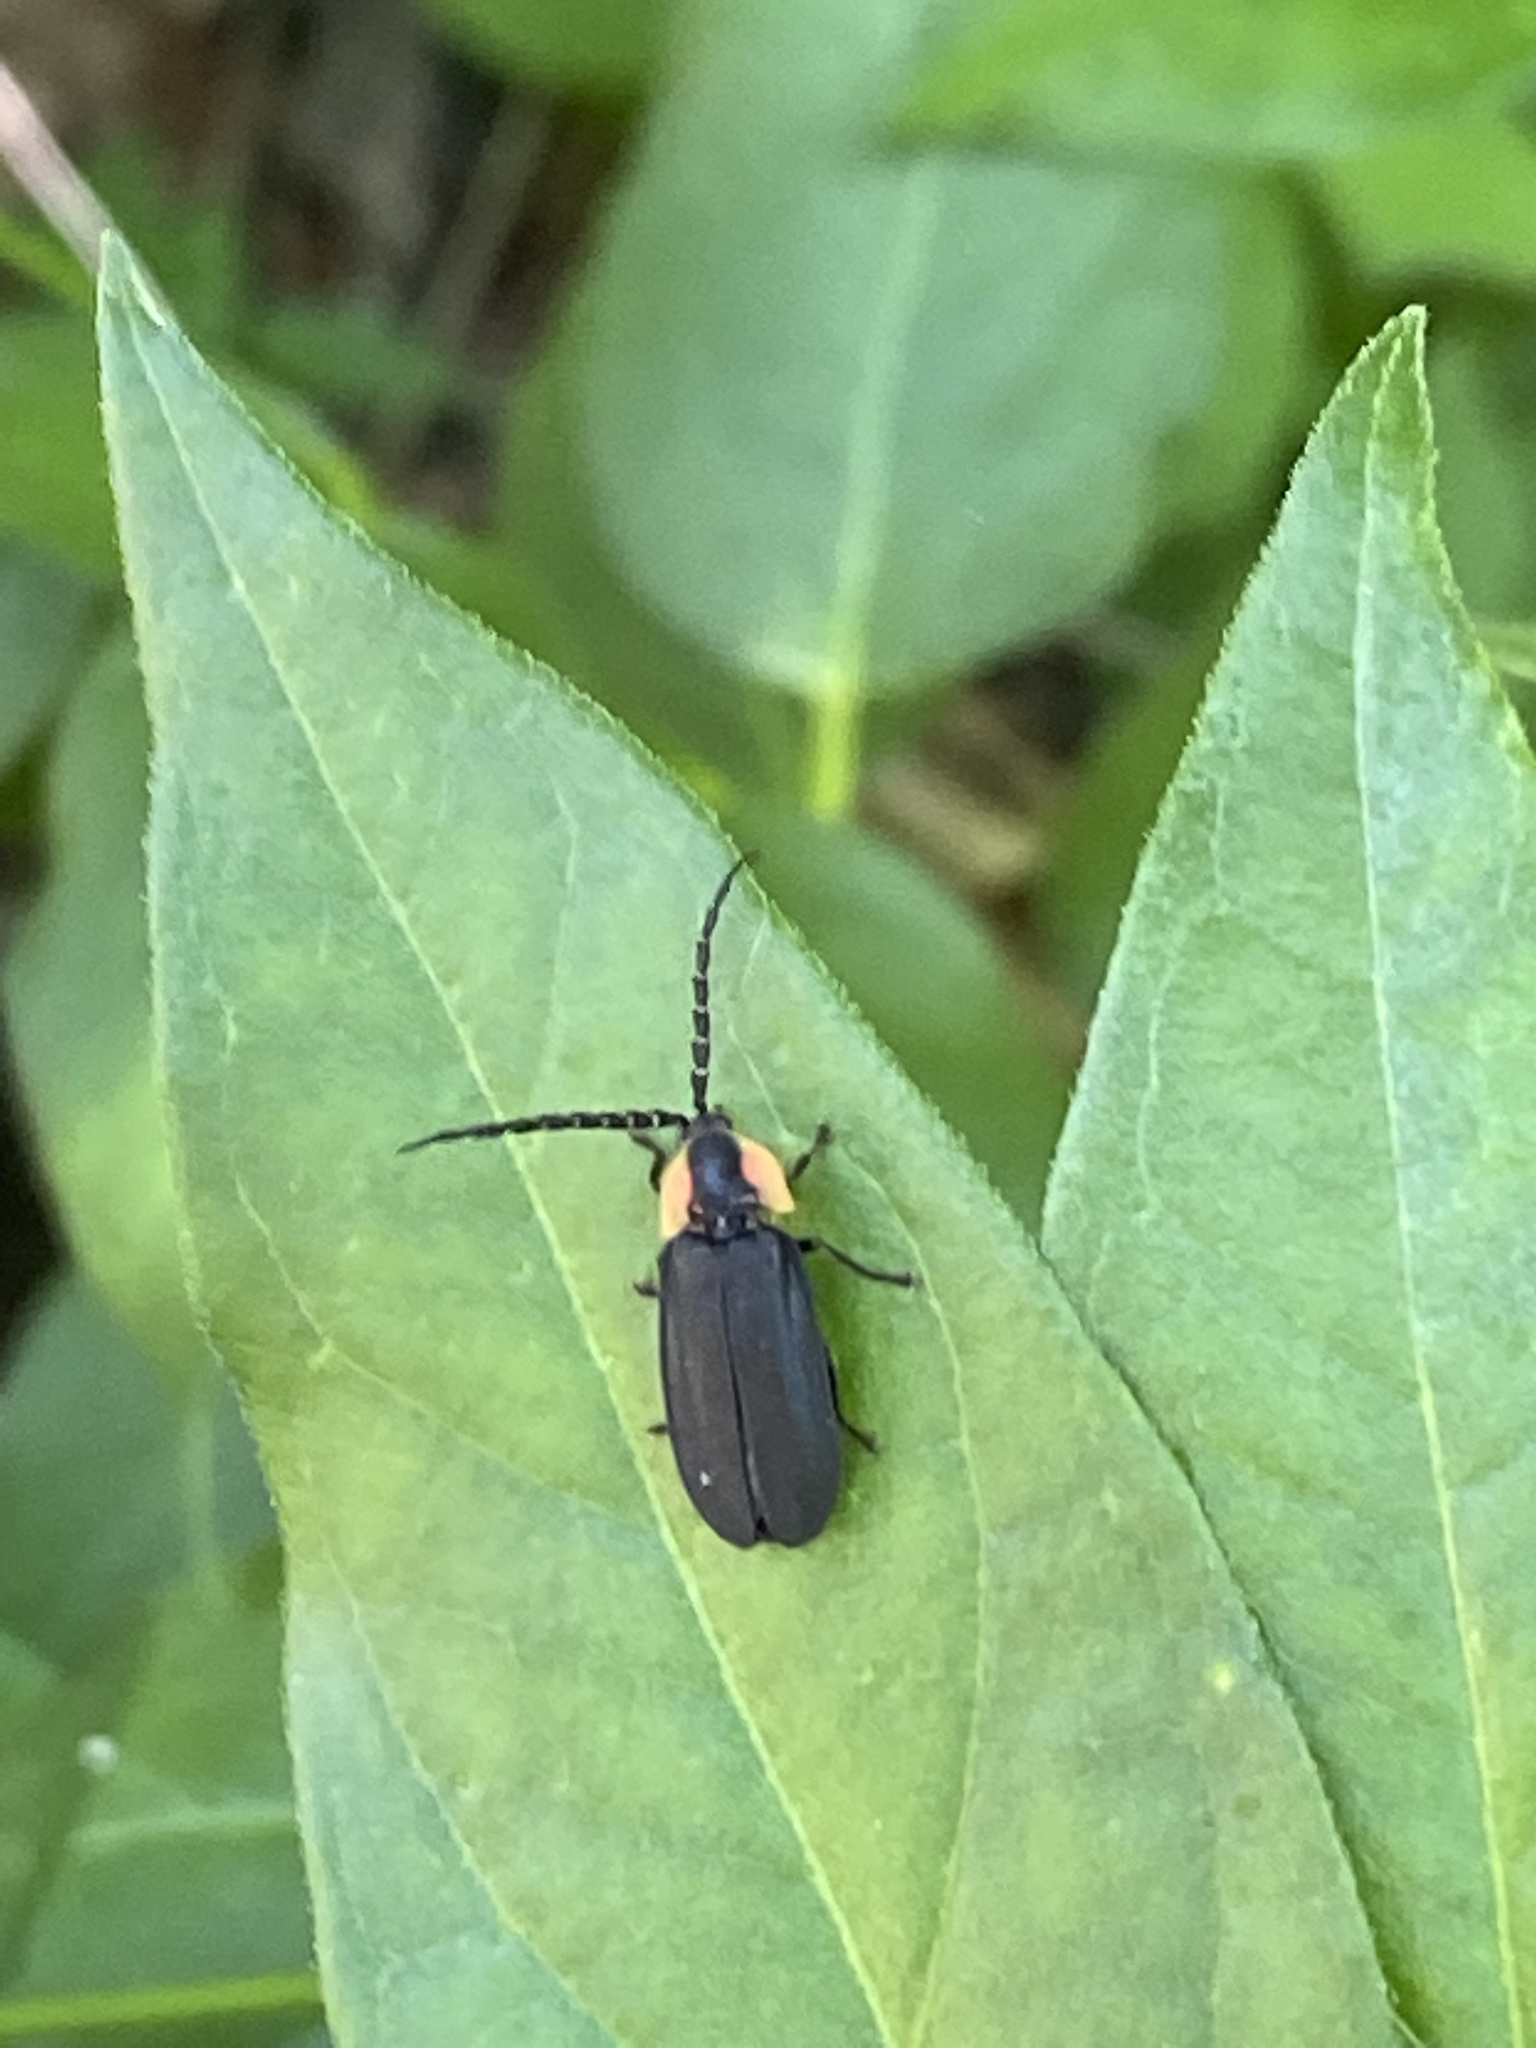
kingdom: Animalia
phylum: Arthropoda
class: Insecta
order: Coleoptera
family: Lampyridae
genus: Lucidota
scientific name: Lucidota atra
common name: Black firefly
